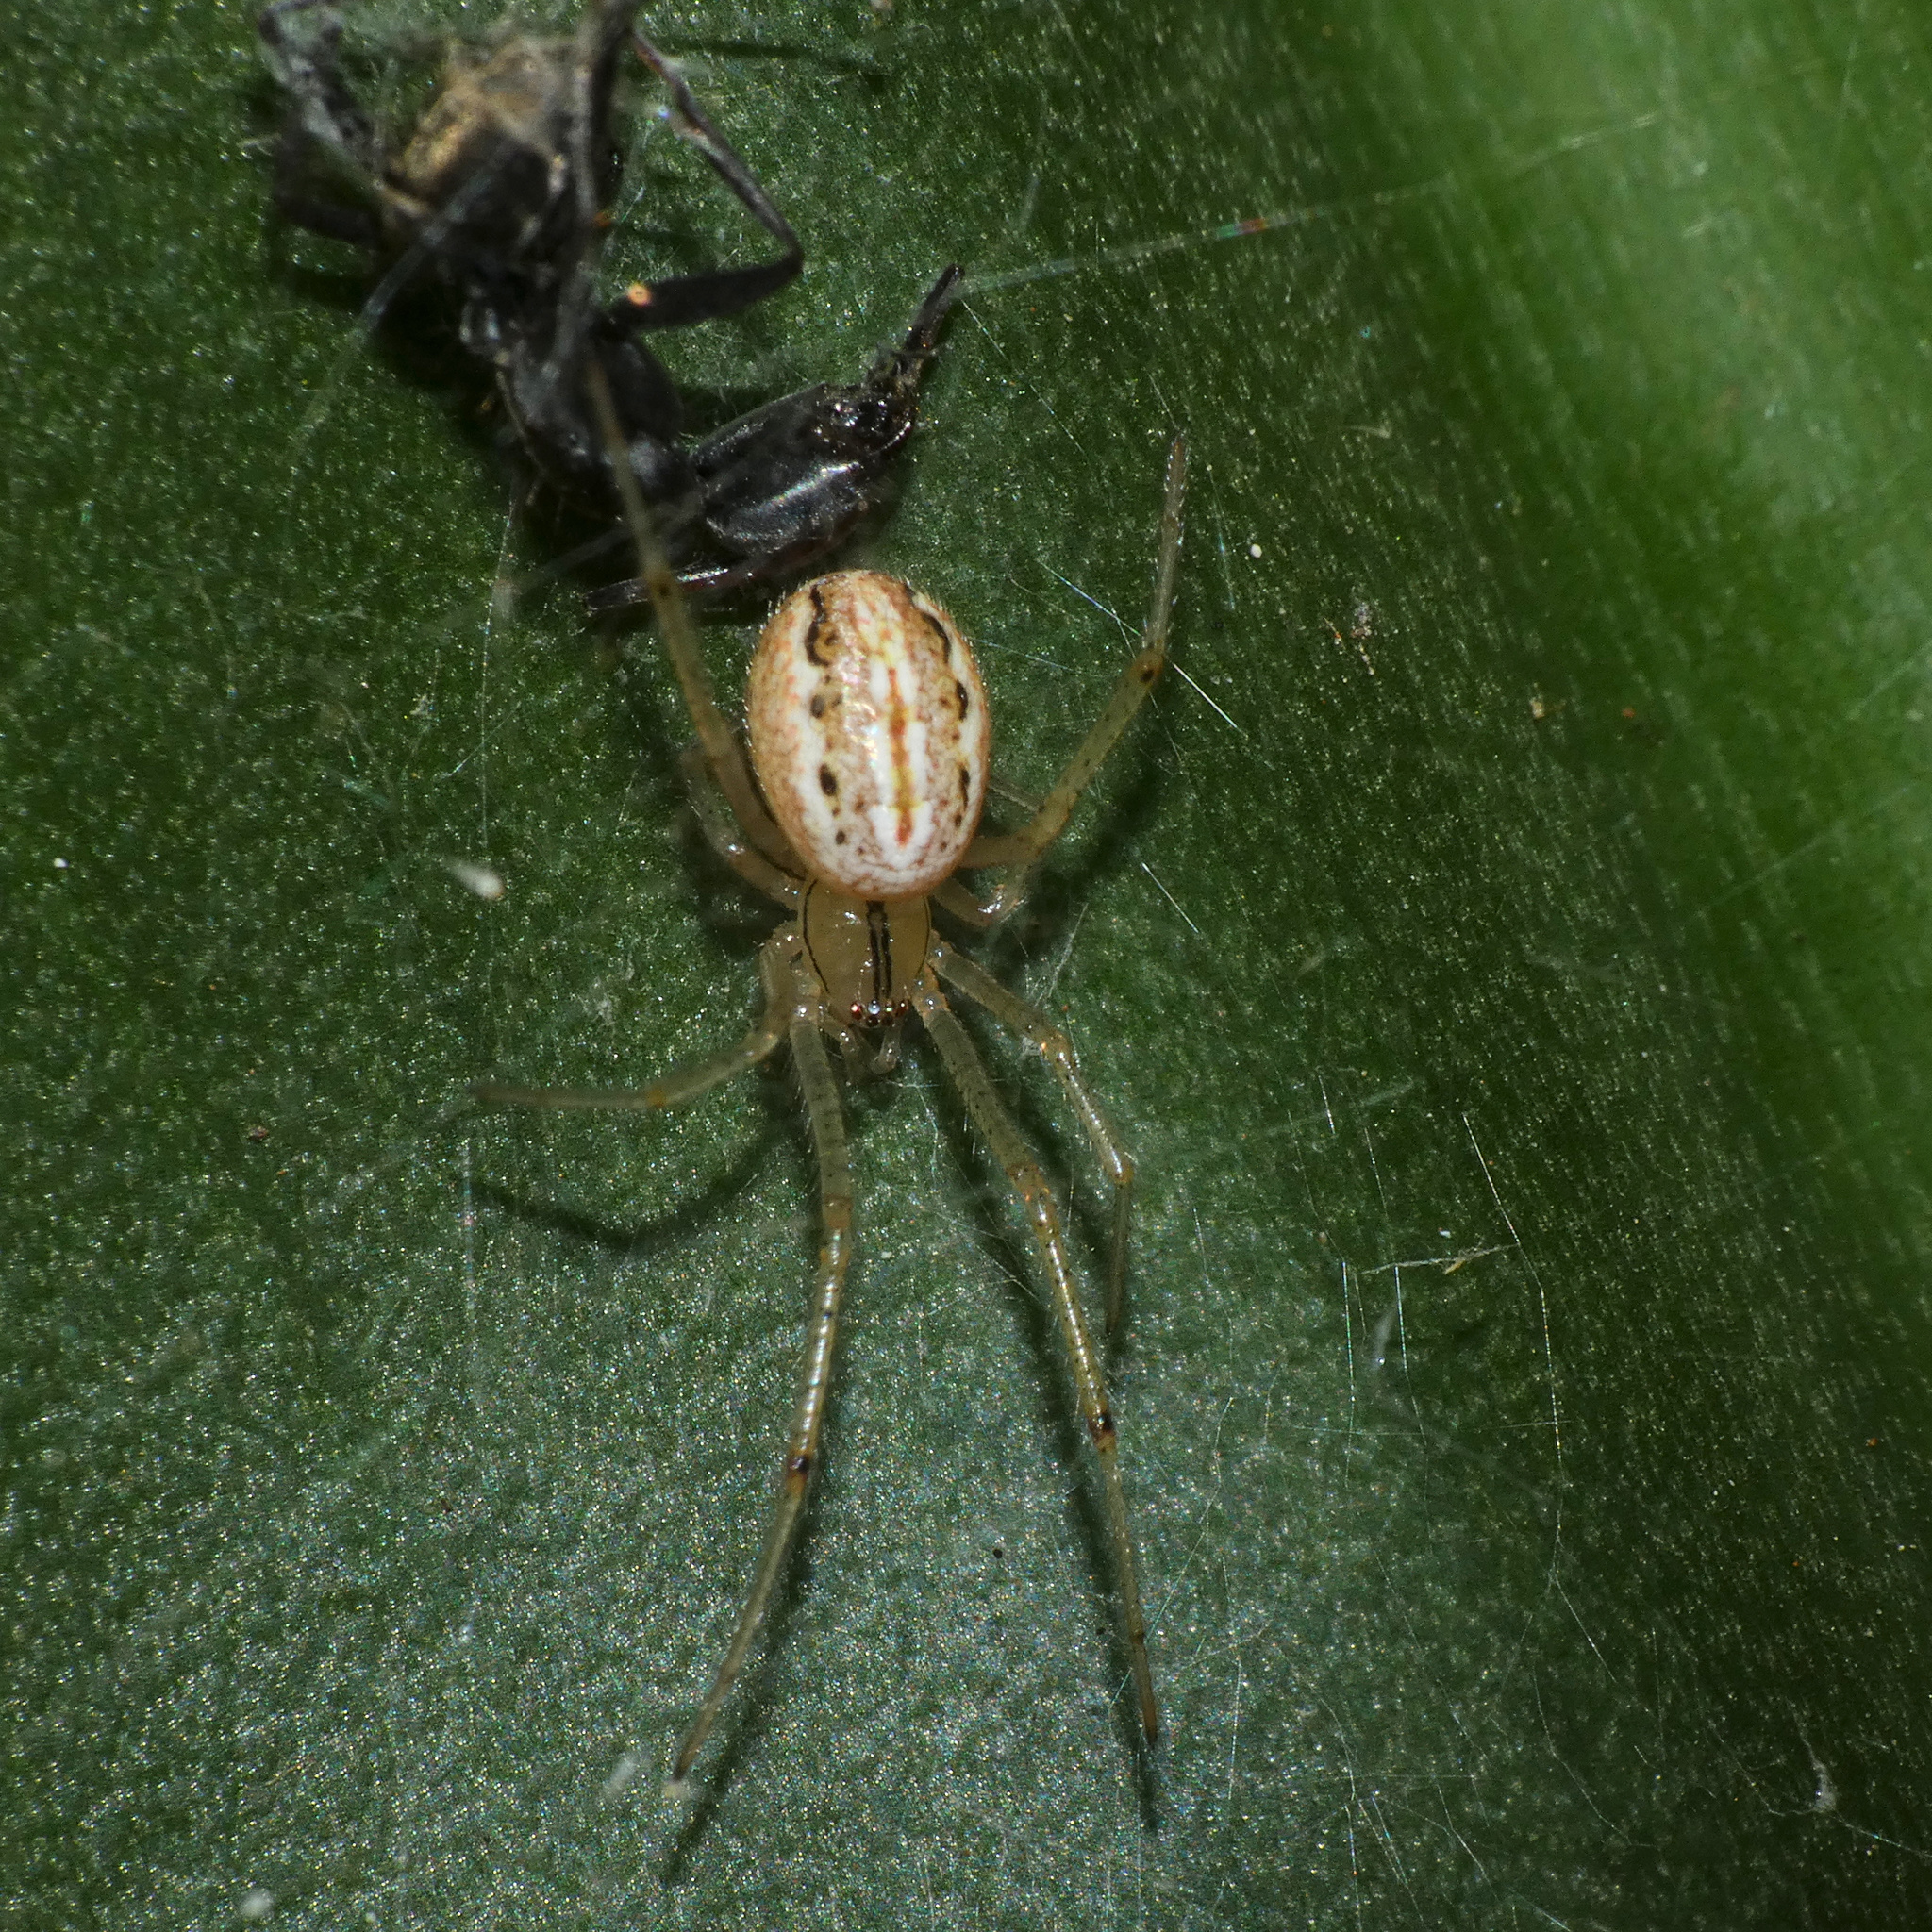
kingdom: Animalia
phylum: Arthropoda
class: Arachnida
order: Araneae
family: Theridiidae
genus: Enoplognatha
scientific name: Enoplognatha molesta
